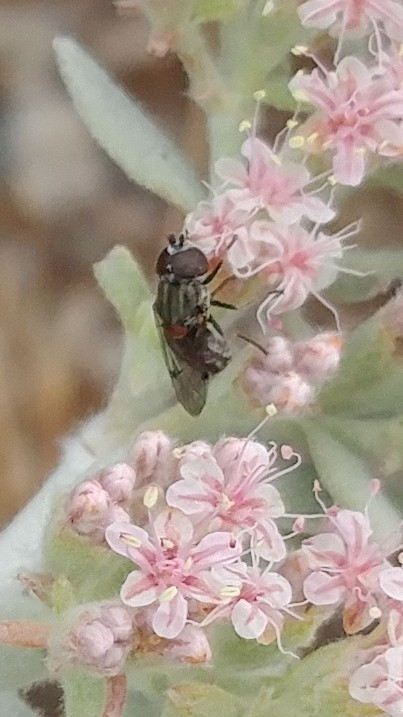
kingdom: Animalia
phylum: Arthropoda
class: Insecta
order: Diptera
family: Syrphidae
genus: Nausigaster
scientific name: Nausigaster unimaculata
